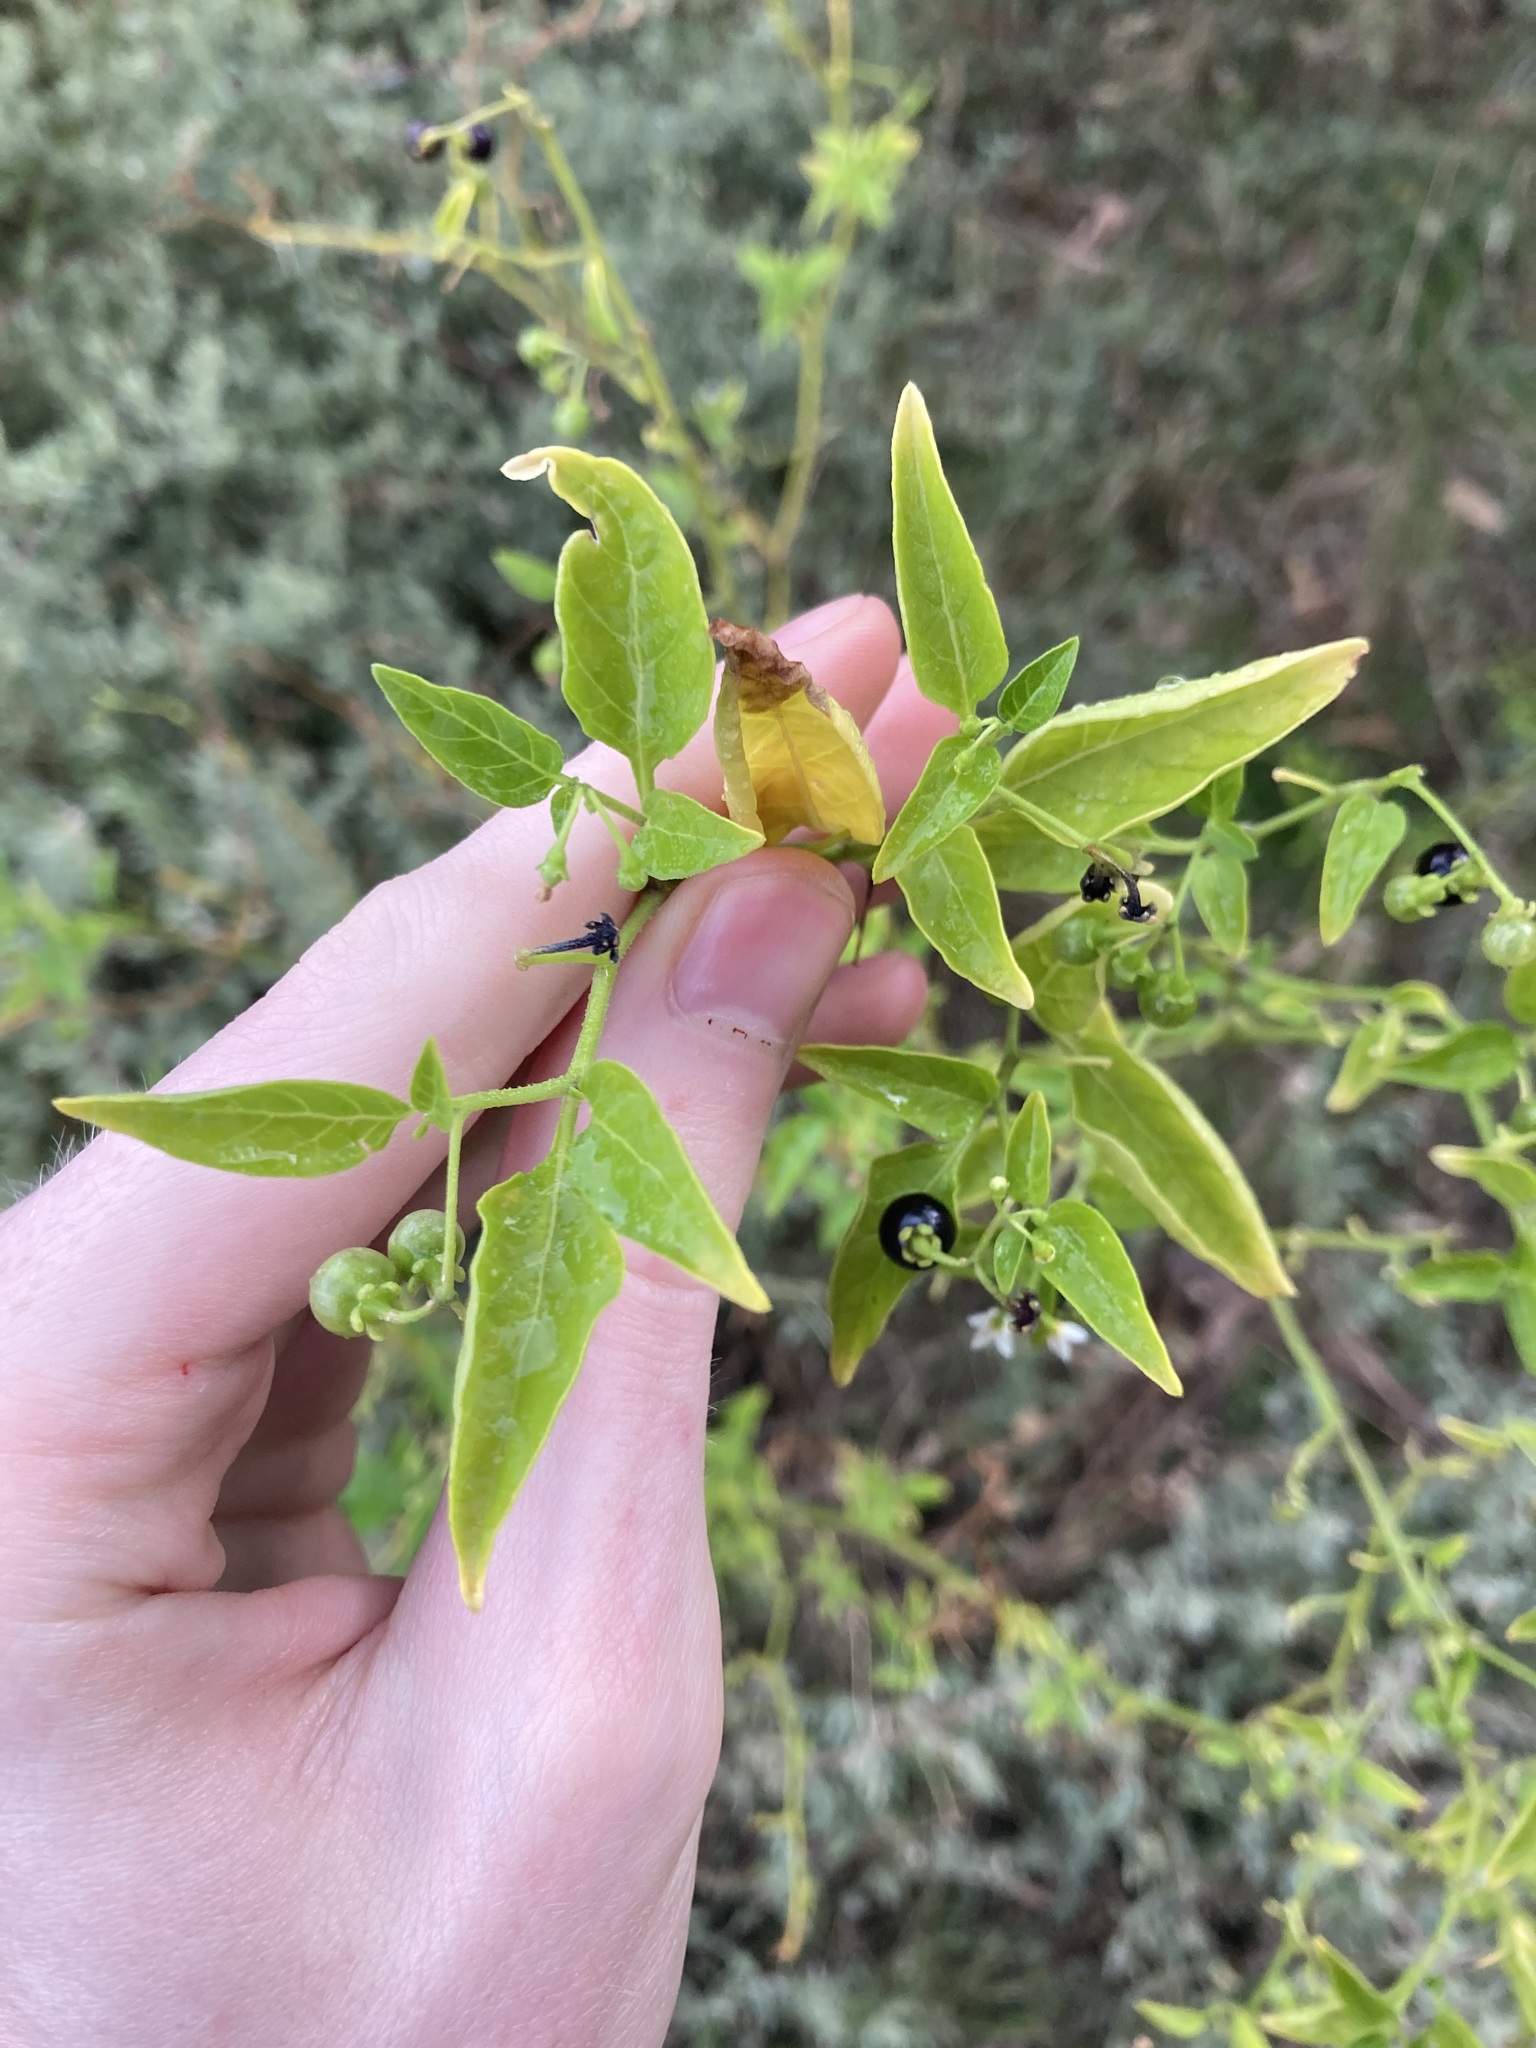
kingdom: Plantae
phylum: Tracheophyta
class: Magnoliopsida
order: Solanales
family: Solanaceae
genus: Solanum
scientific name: Solanum americanum
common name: American black nightshade
